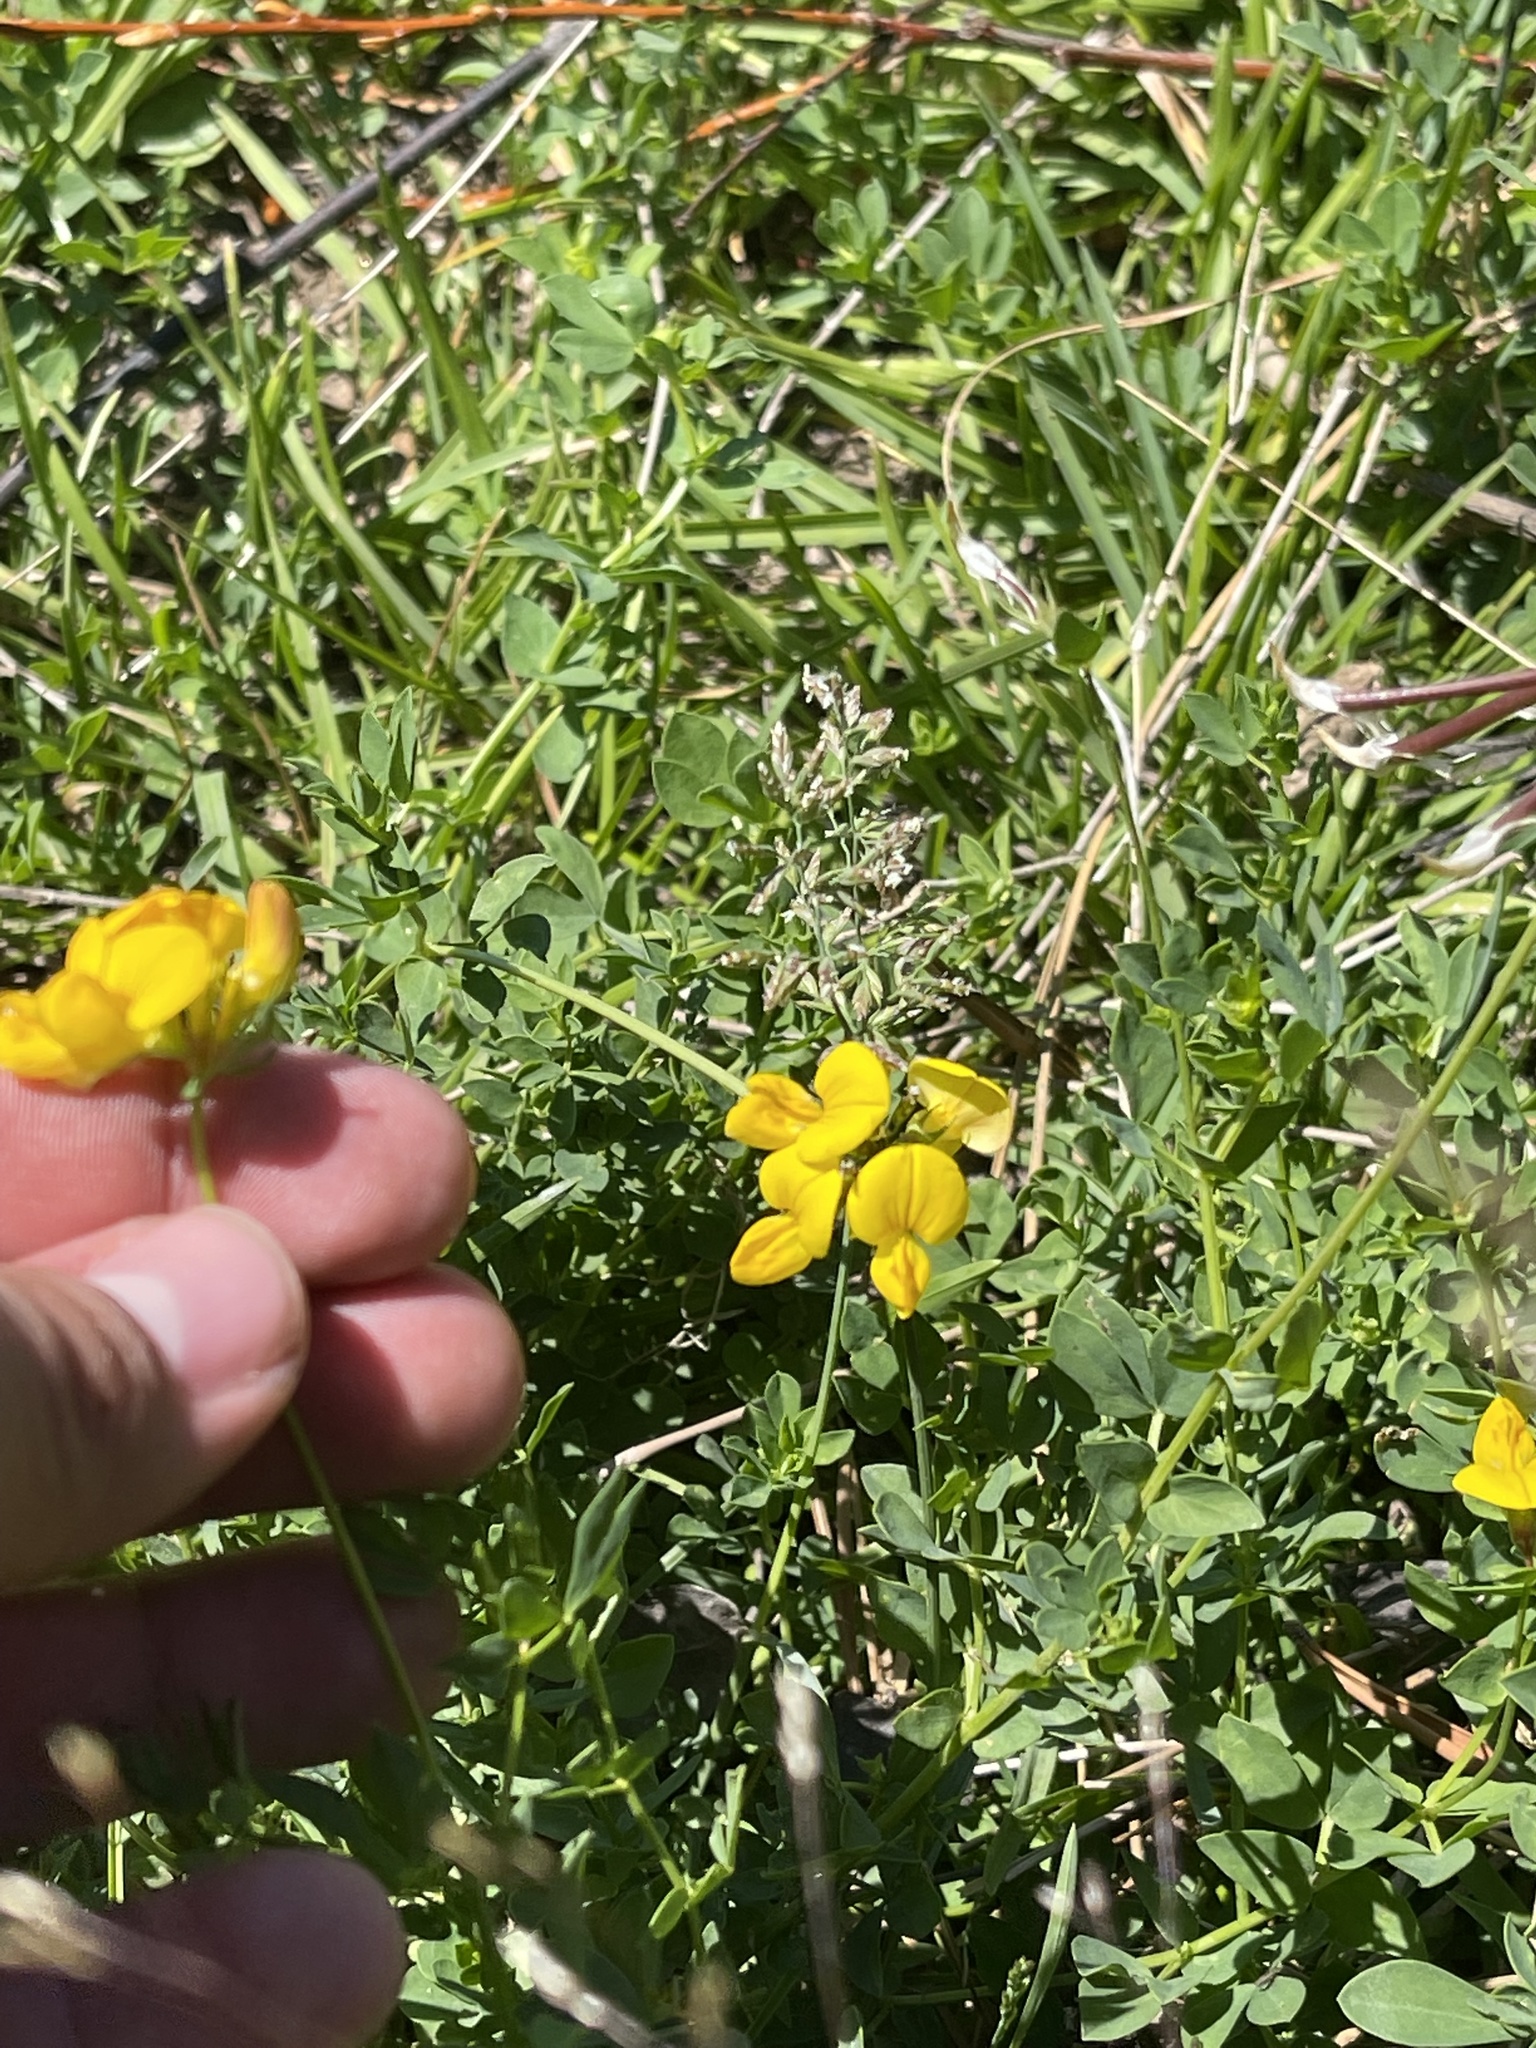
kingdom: Plantae
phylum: Tracheophyta
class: Magnoliopsida
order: Fabales
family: Fabaceae
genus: Lotus
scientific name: Lotus corniculatus
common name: Common bird's-foot-trefoil
